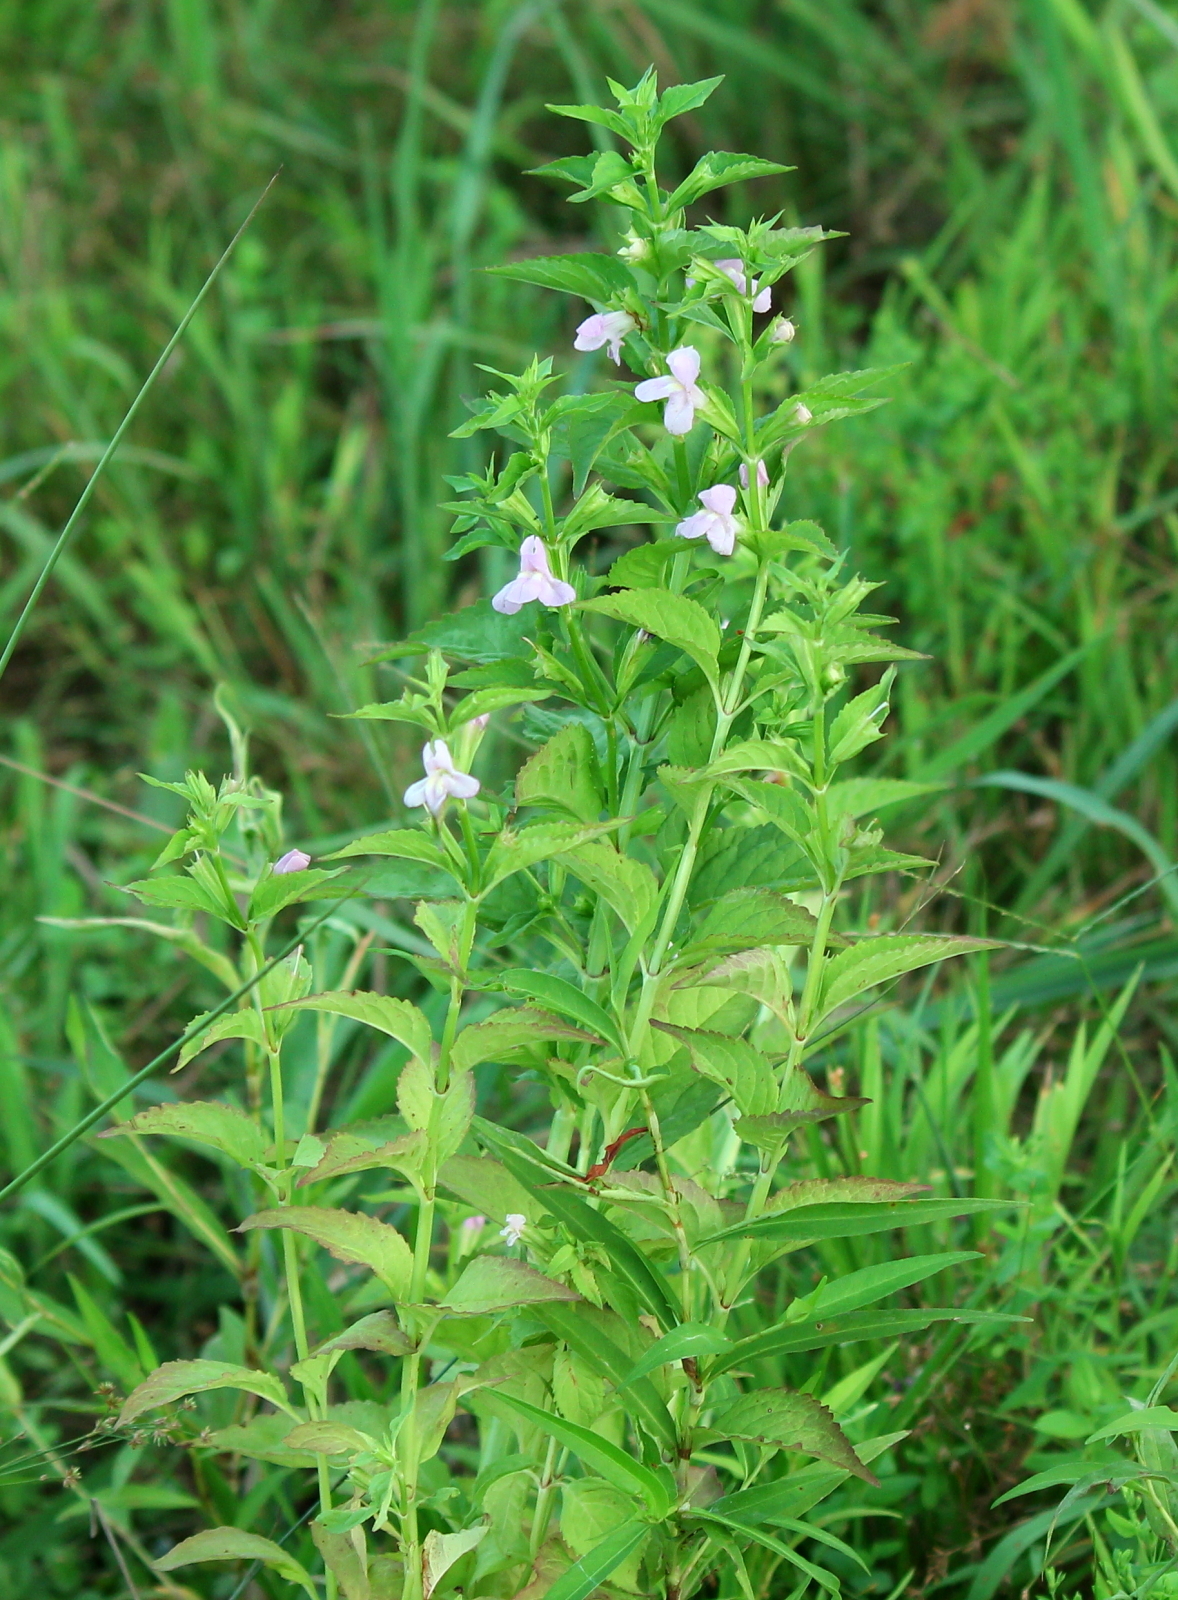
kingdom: Plantae
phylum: Tracheophyta
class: Magnoliopsida
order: Lamiales
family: Phrymaceae
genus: Mimulus
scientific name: Mimulus alatus
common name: Sharp-wing monkey-flower
